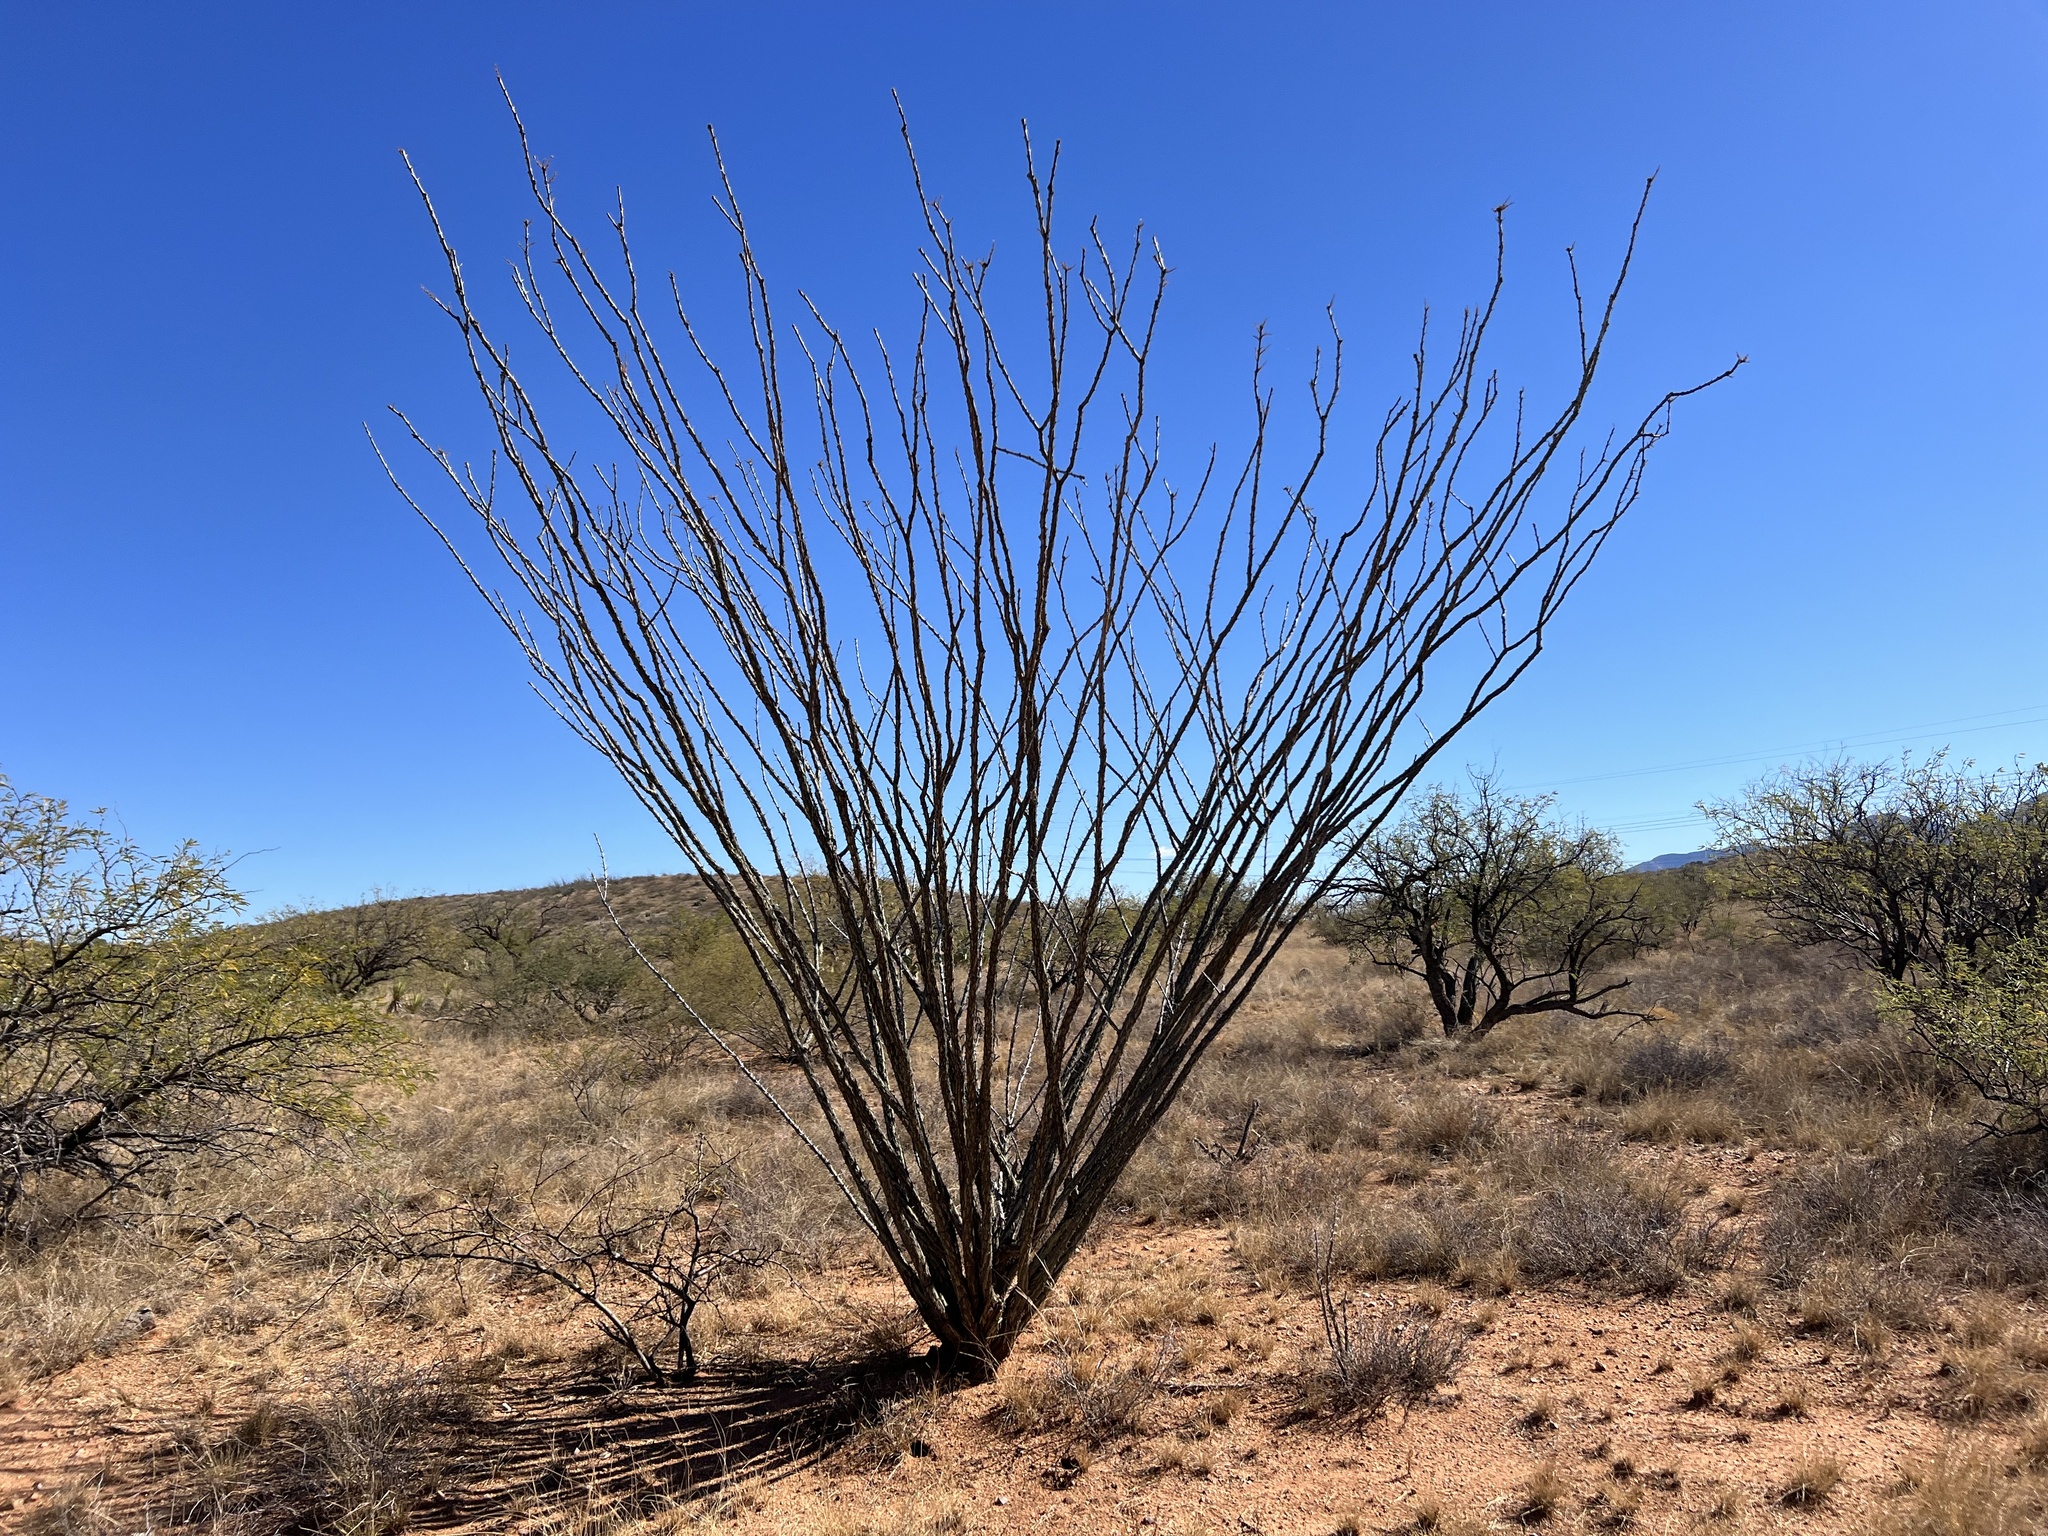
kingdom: Plantae
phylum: Tracheophyta
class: Magnoliopsida
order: Ericales
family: Fouquieriaceae
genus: Fouquieria
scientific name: Fouquieria splendens
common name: Vine-cactus
